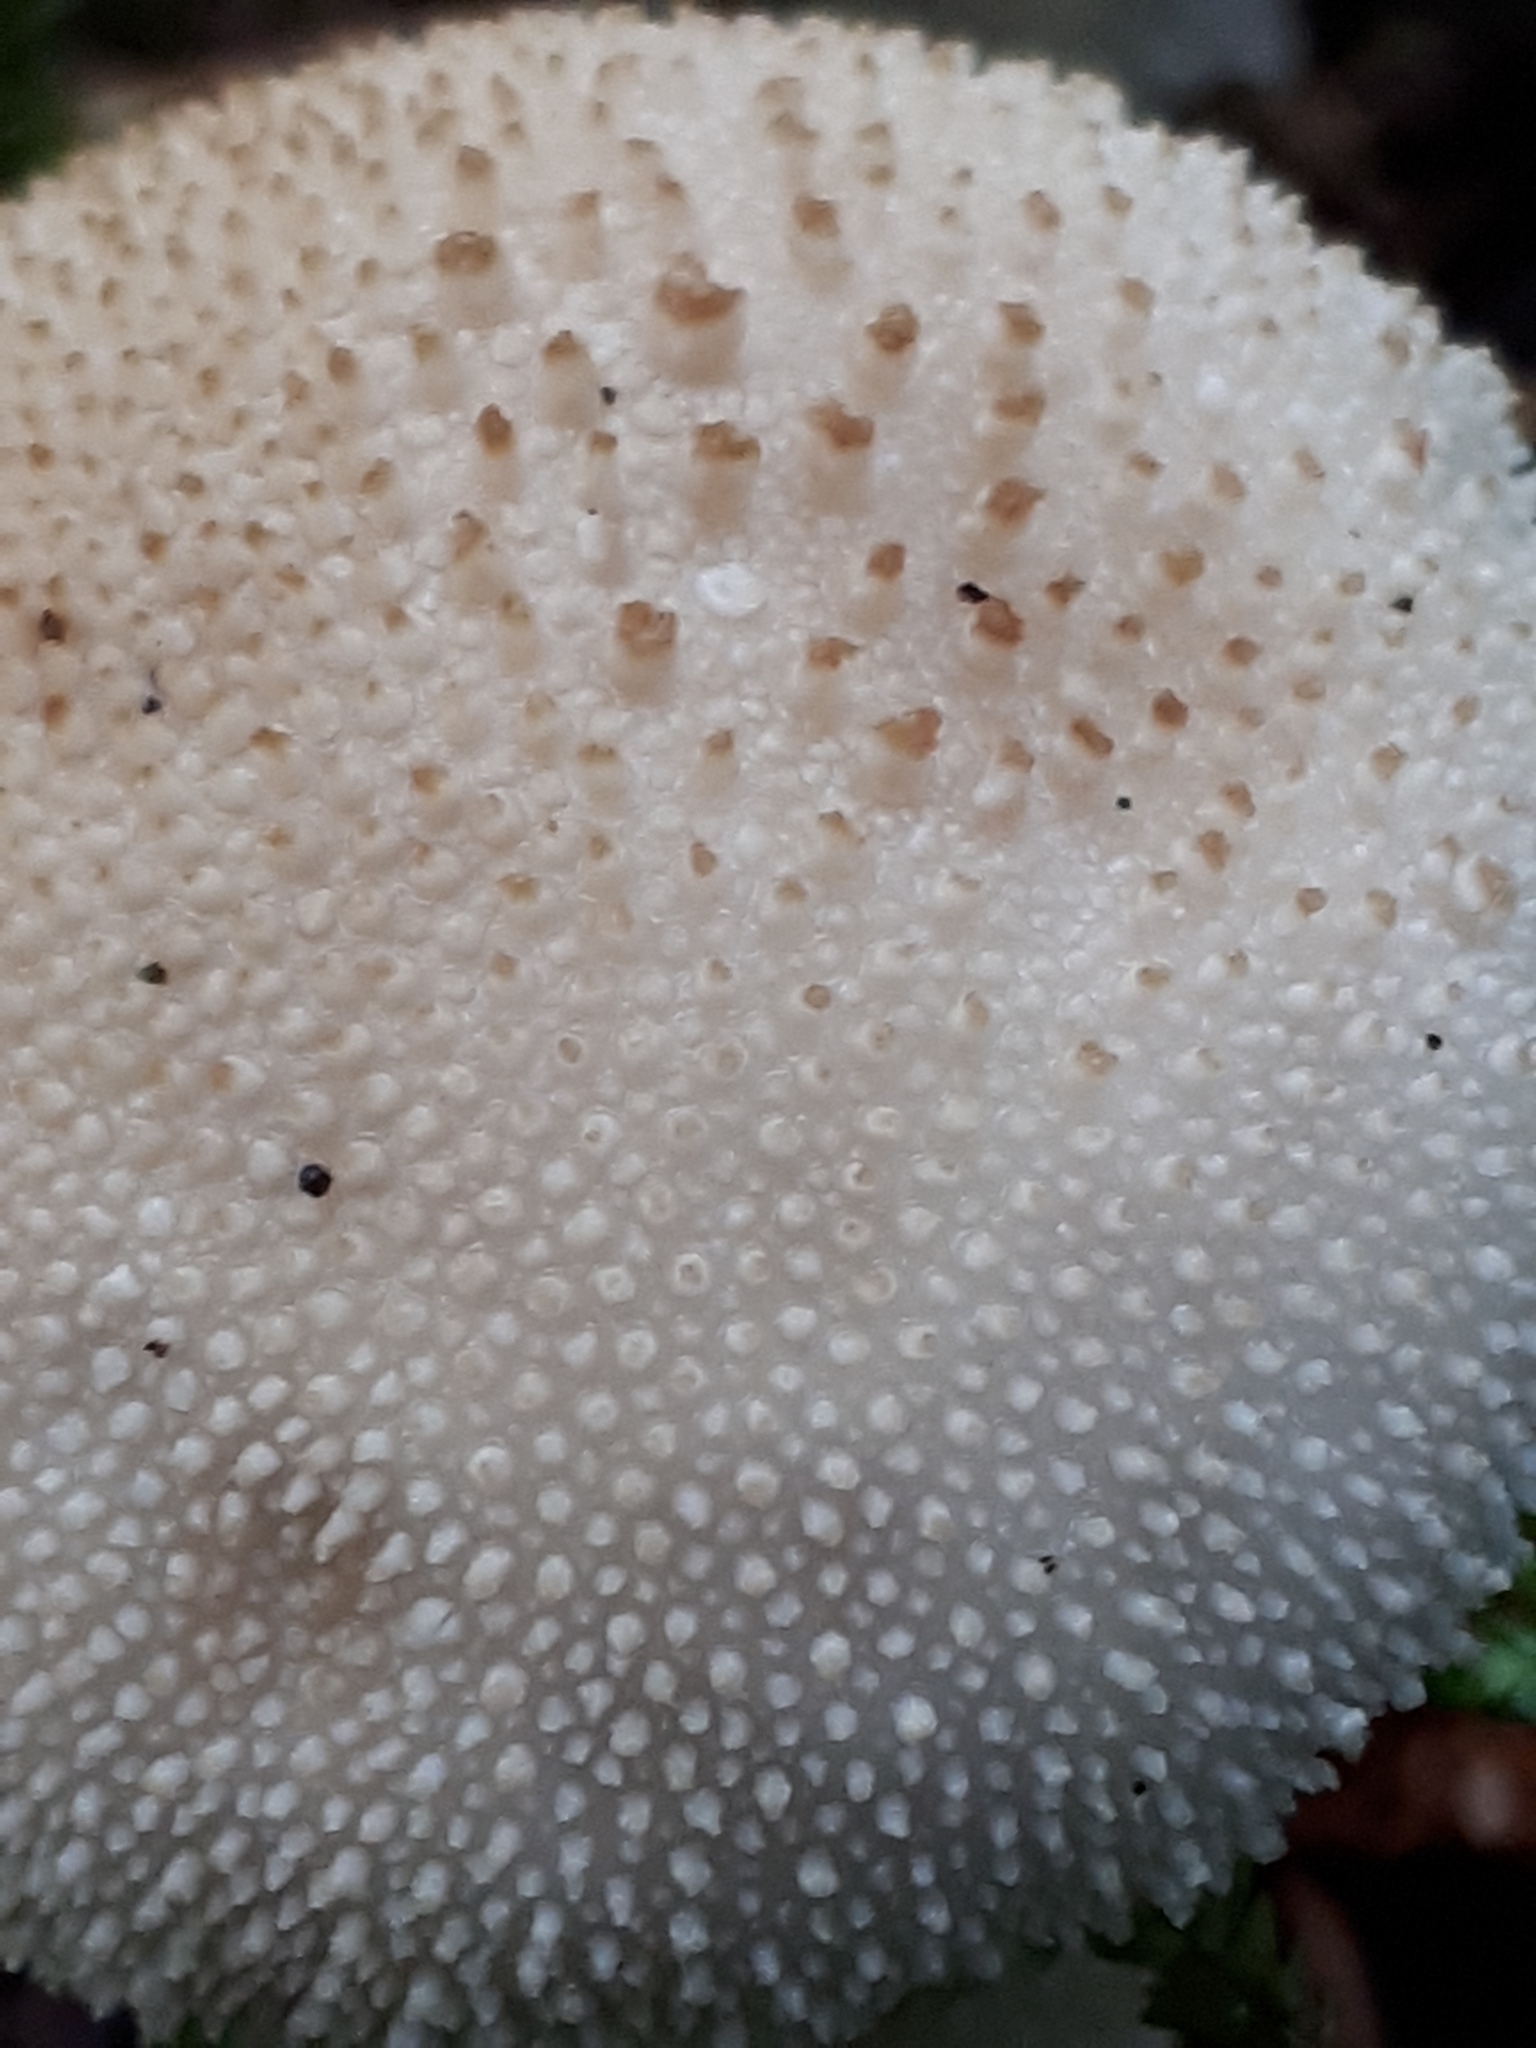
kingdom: Fungi
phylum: Basidiomycota
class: Agaricomycetes
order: Agaricales
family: Lycoperdaceae
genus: Lycoperdon
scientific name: Lycoperdon perlatum
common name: Common puffball
